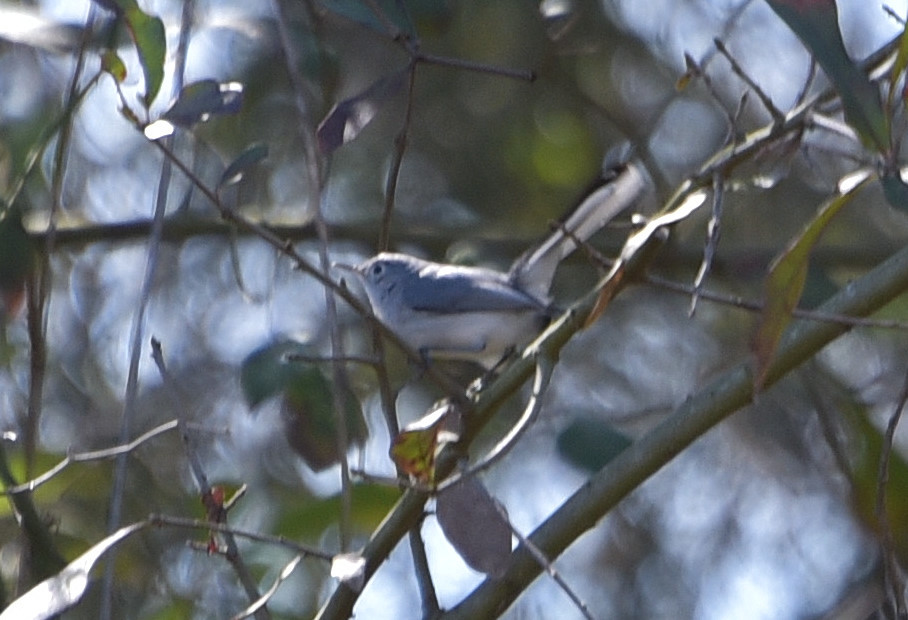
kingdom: Animalia
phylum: Chordata
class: Aves
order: Passeriformes
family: Polioptilidae
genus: Polioptila
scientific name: Polioptila caerulea
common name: Blue-gray gnatcatcher
